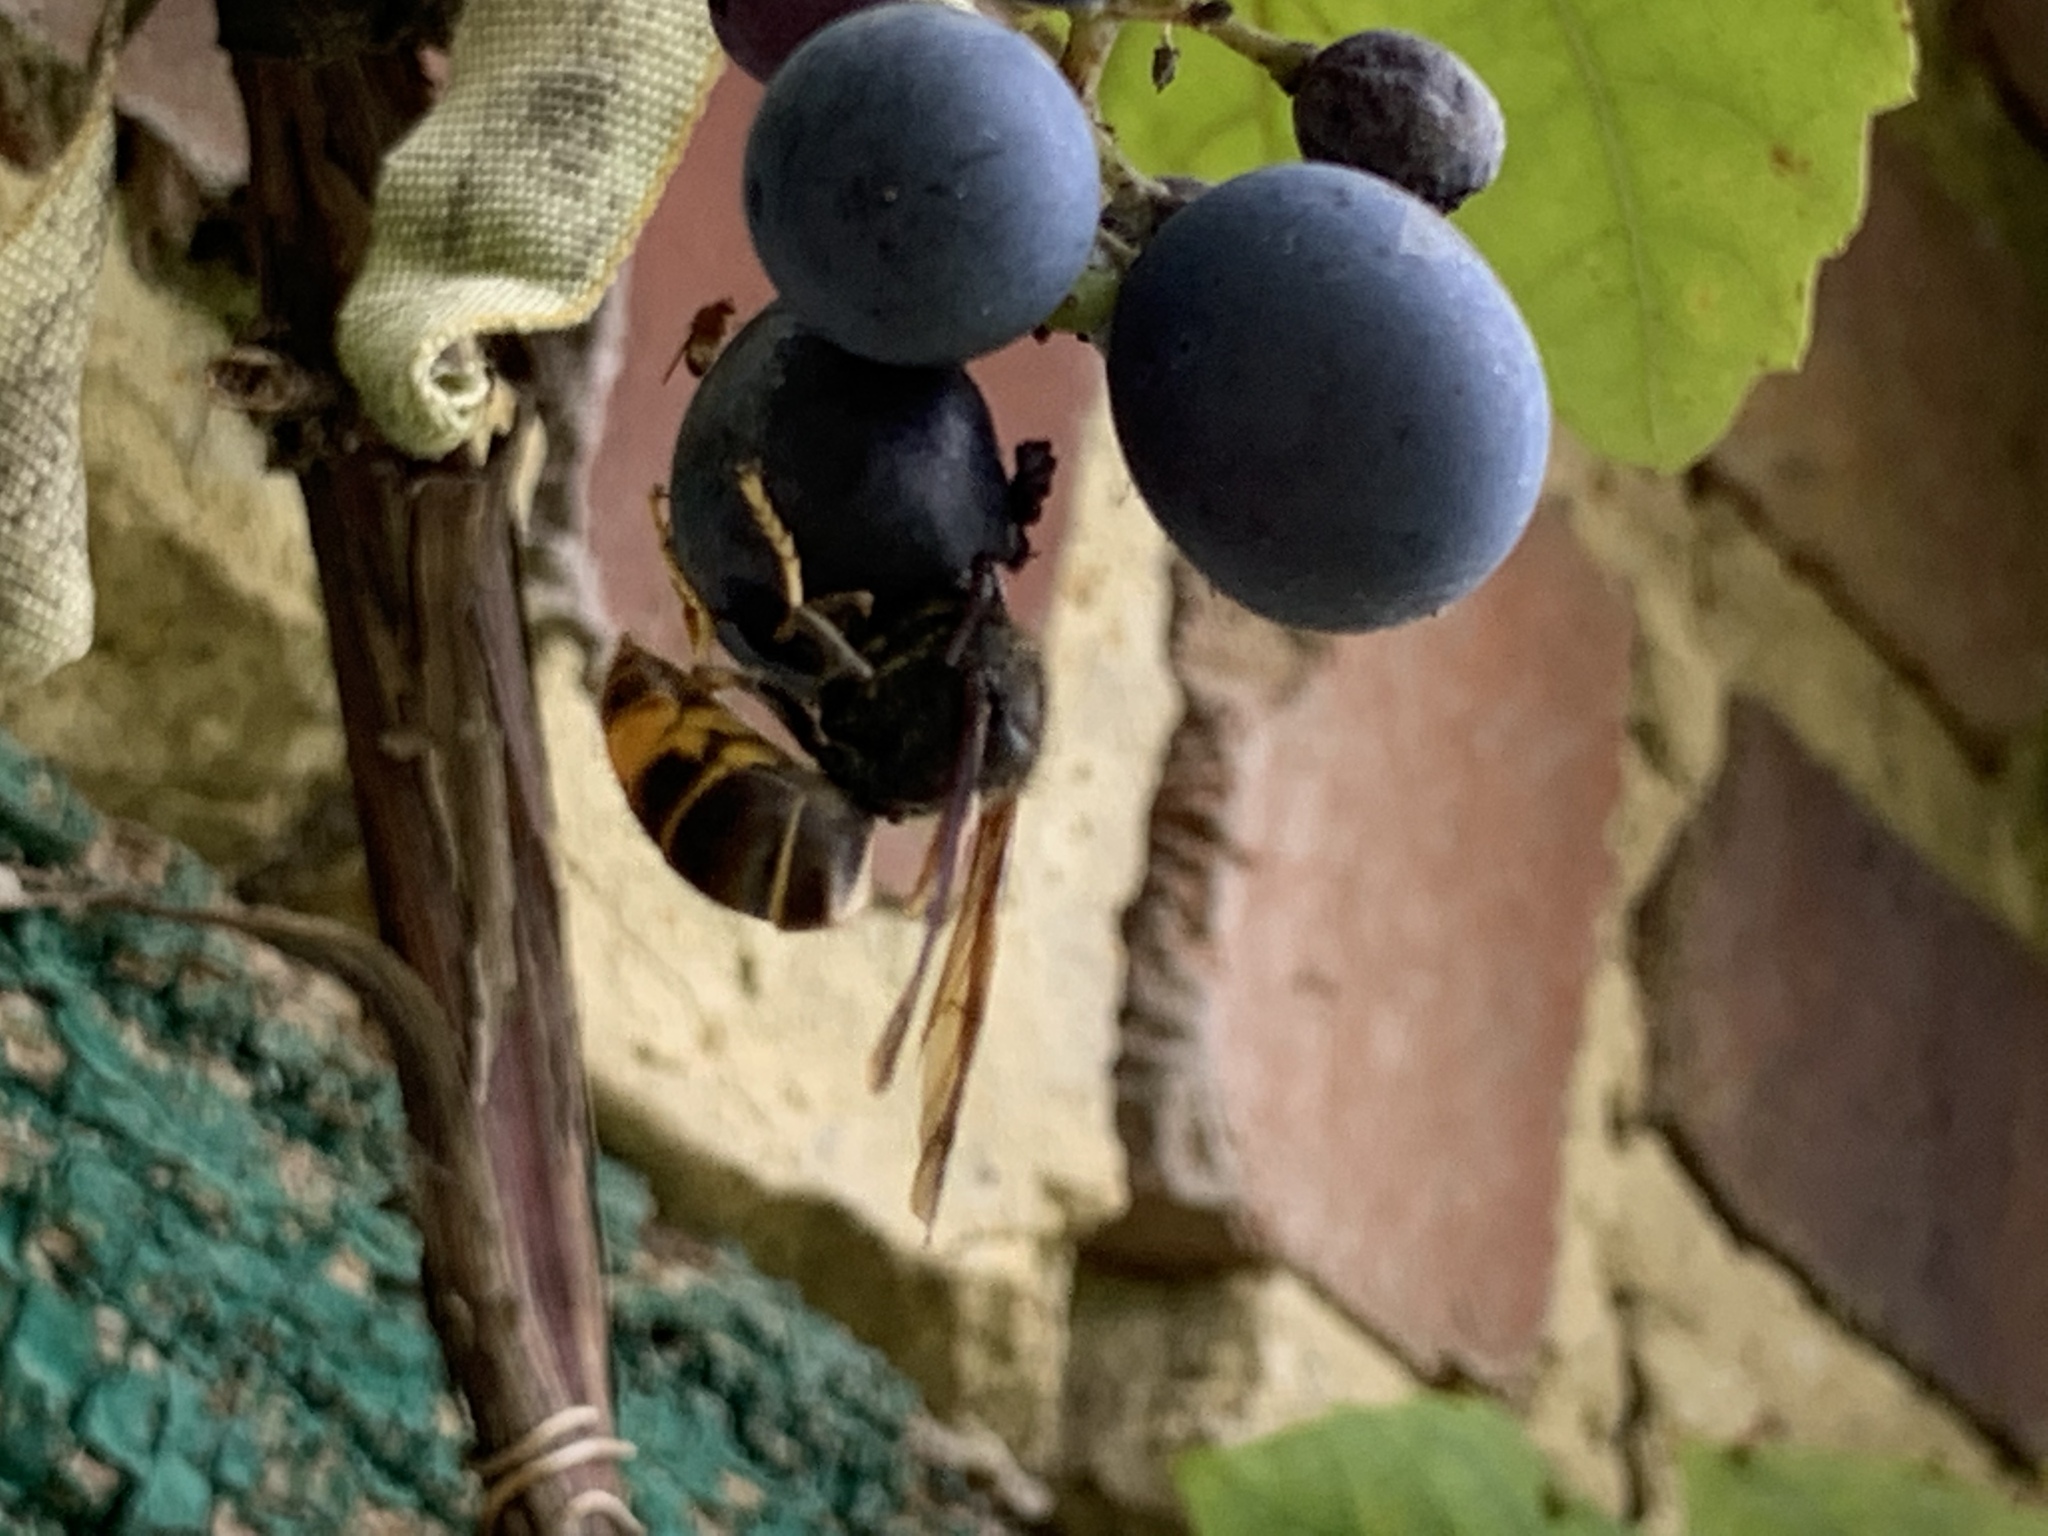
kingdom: Animalia
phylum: Arthropoda
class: Insecta
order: Hymenoptera
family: Vespidae
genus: Vespa
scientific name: Vespa velutina
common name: Asian hornet
